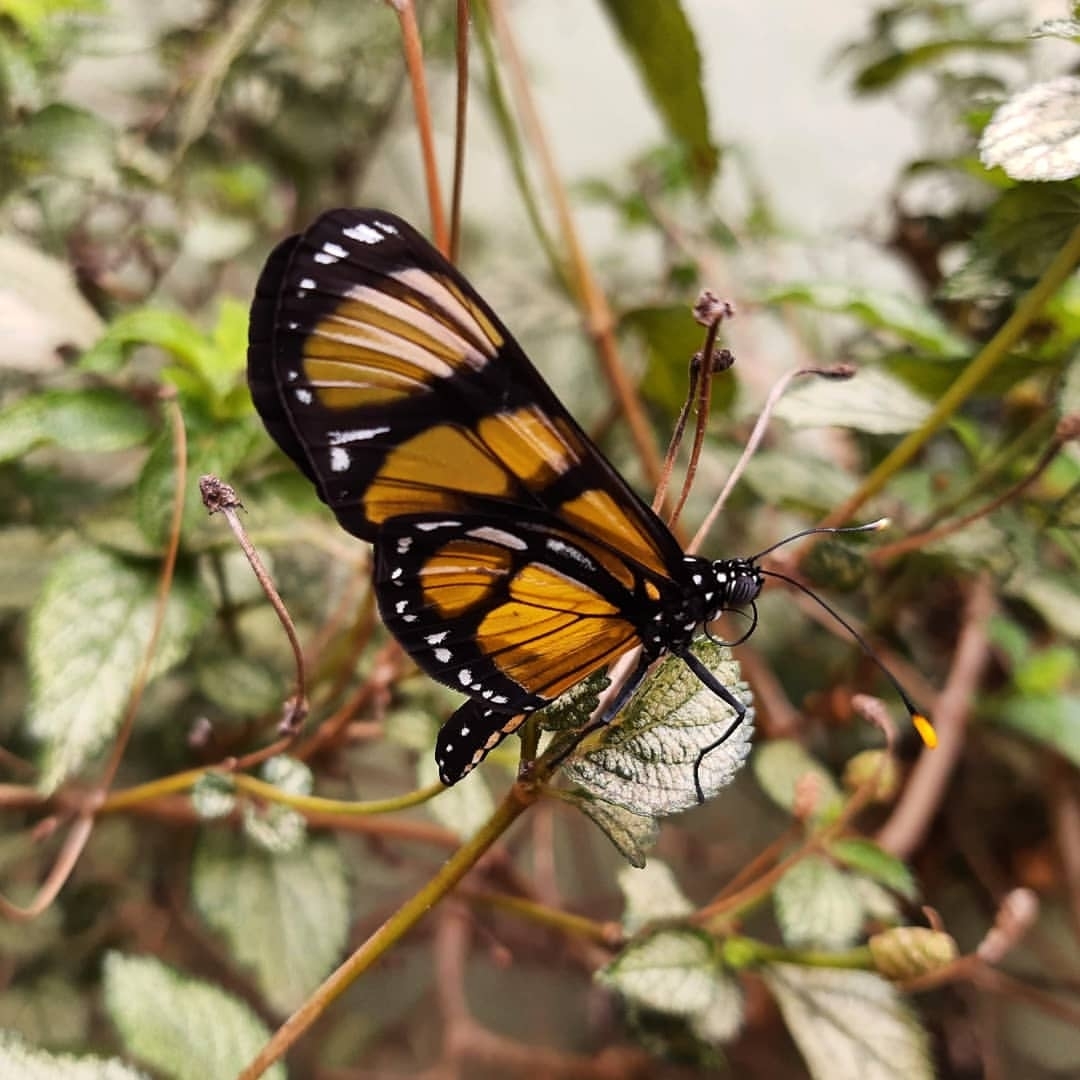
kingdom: Animalia
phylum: Arthropoda
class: Insecta
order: Lepidoptera
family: Nymphalidae
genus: Methona
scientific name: Methona themisto
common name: Themisto amberwing
